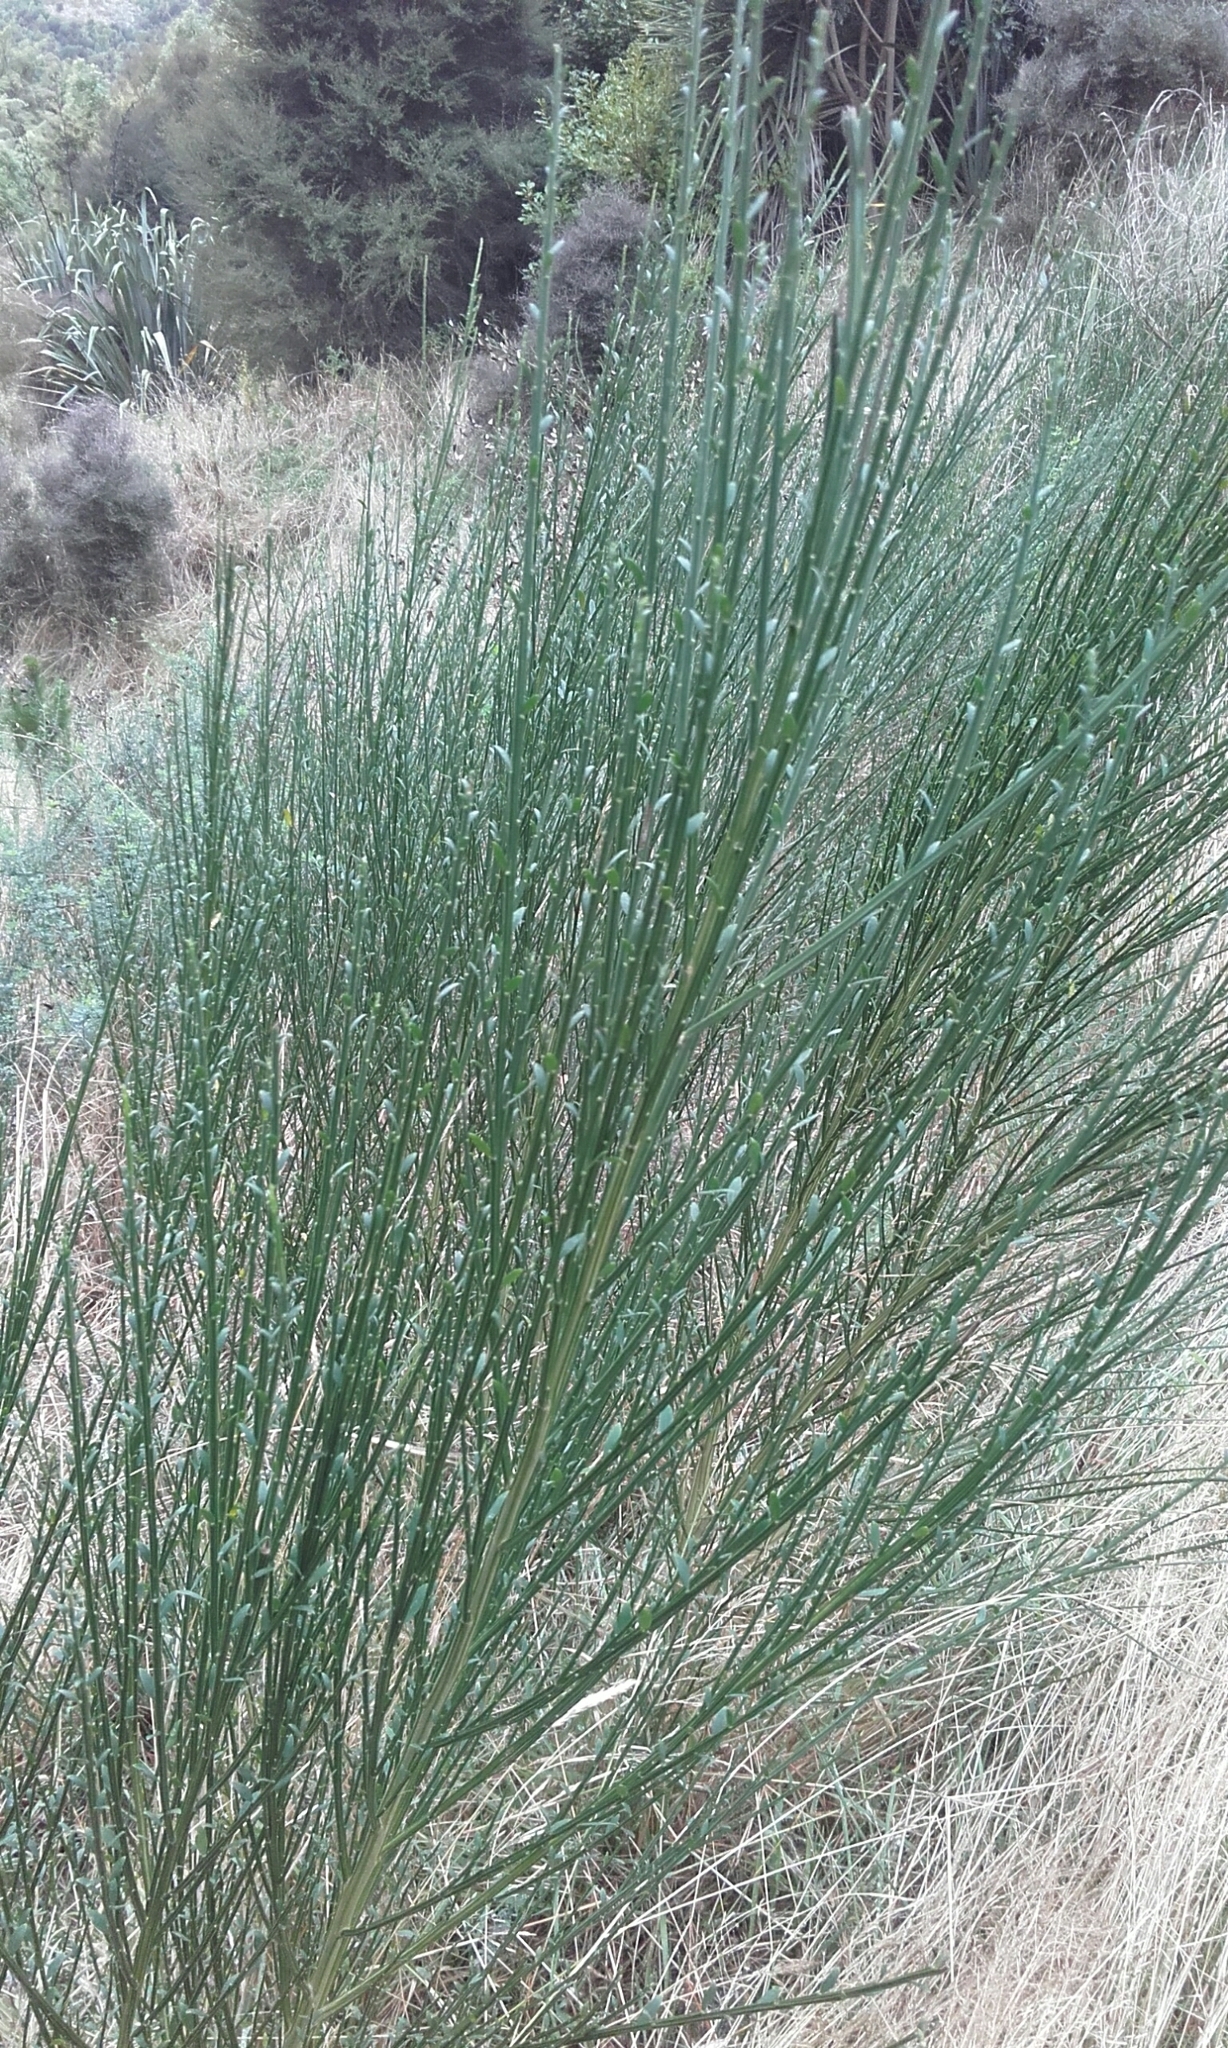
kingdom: Plantae
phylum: Tracheophyta
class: Magnoliopsida
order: Fabales
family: Fabaceae
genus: Cytisus
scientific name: Cytisus scoparius
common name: Scotch broom
